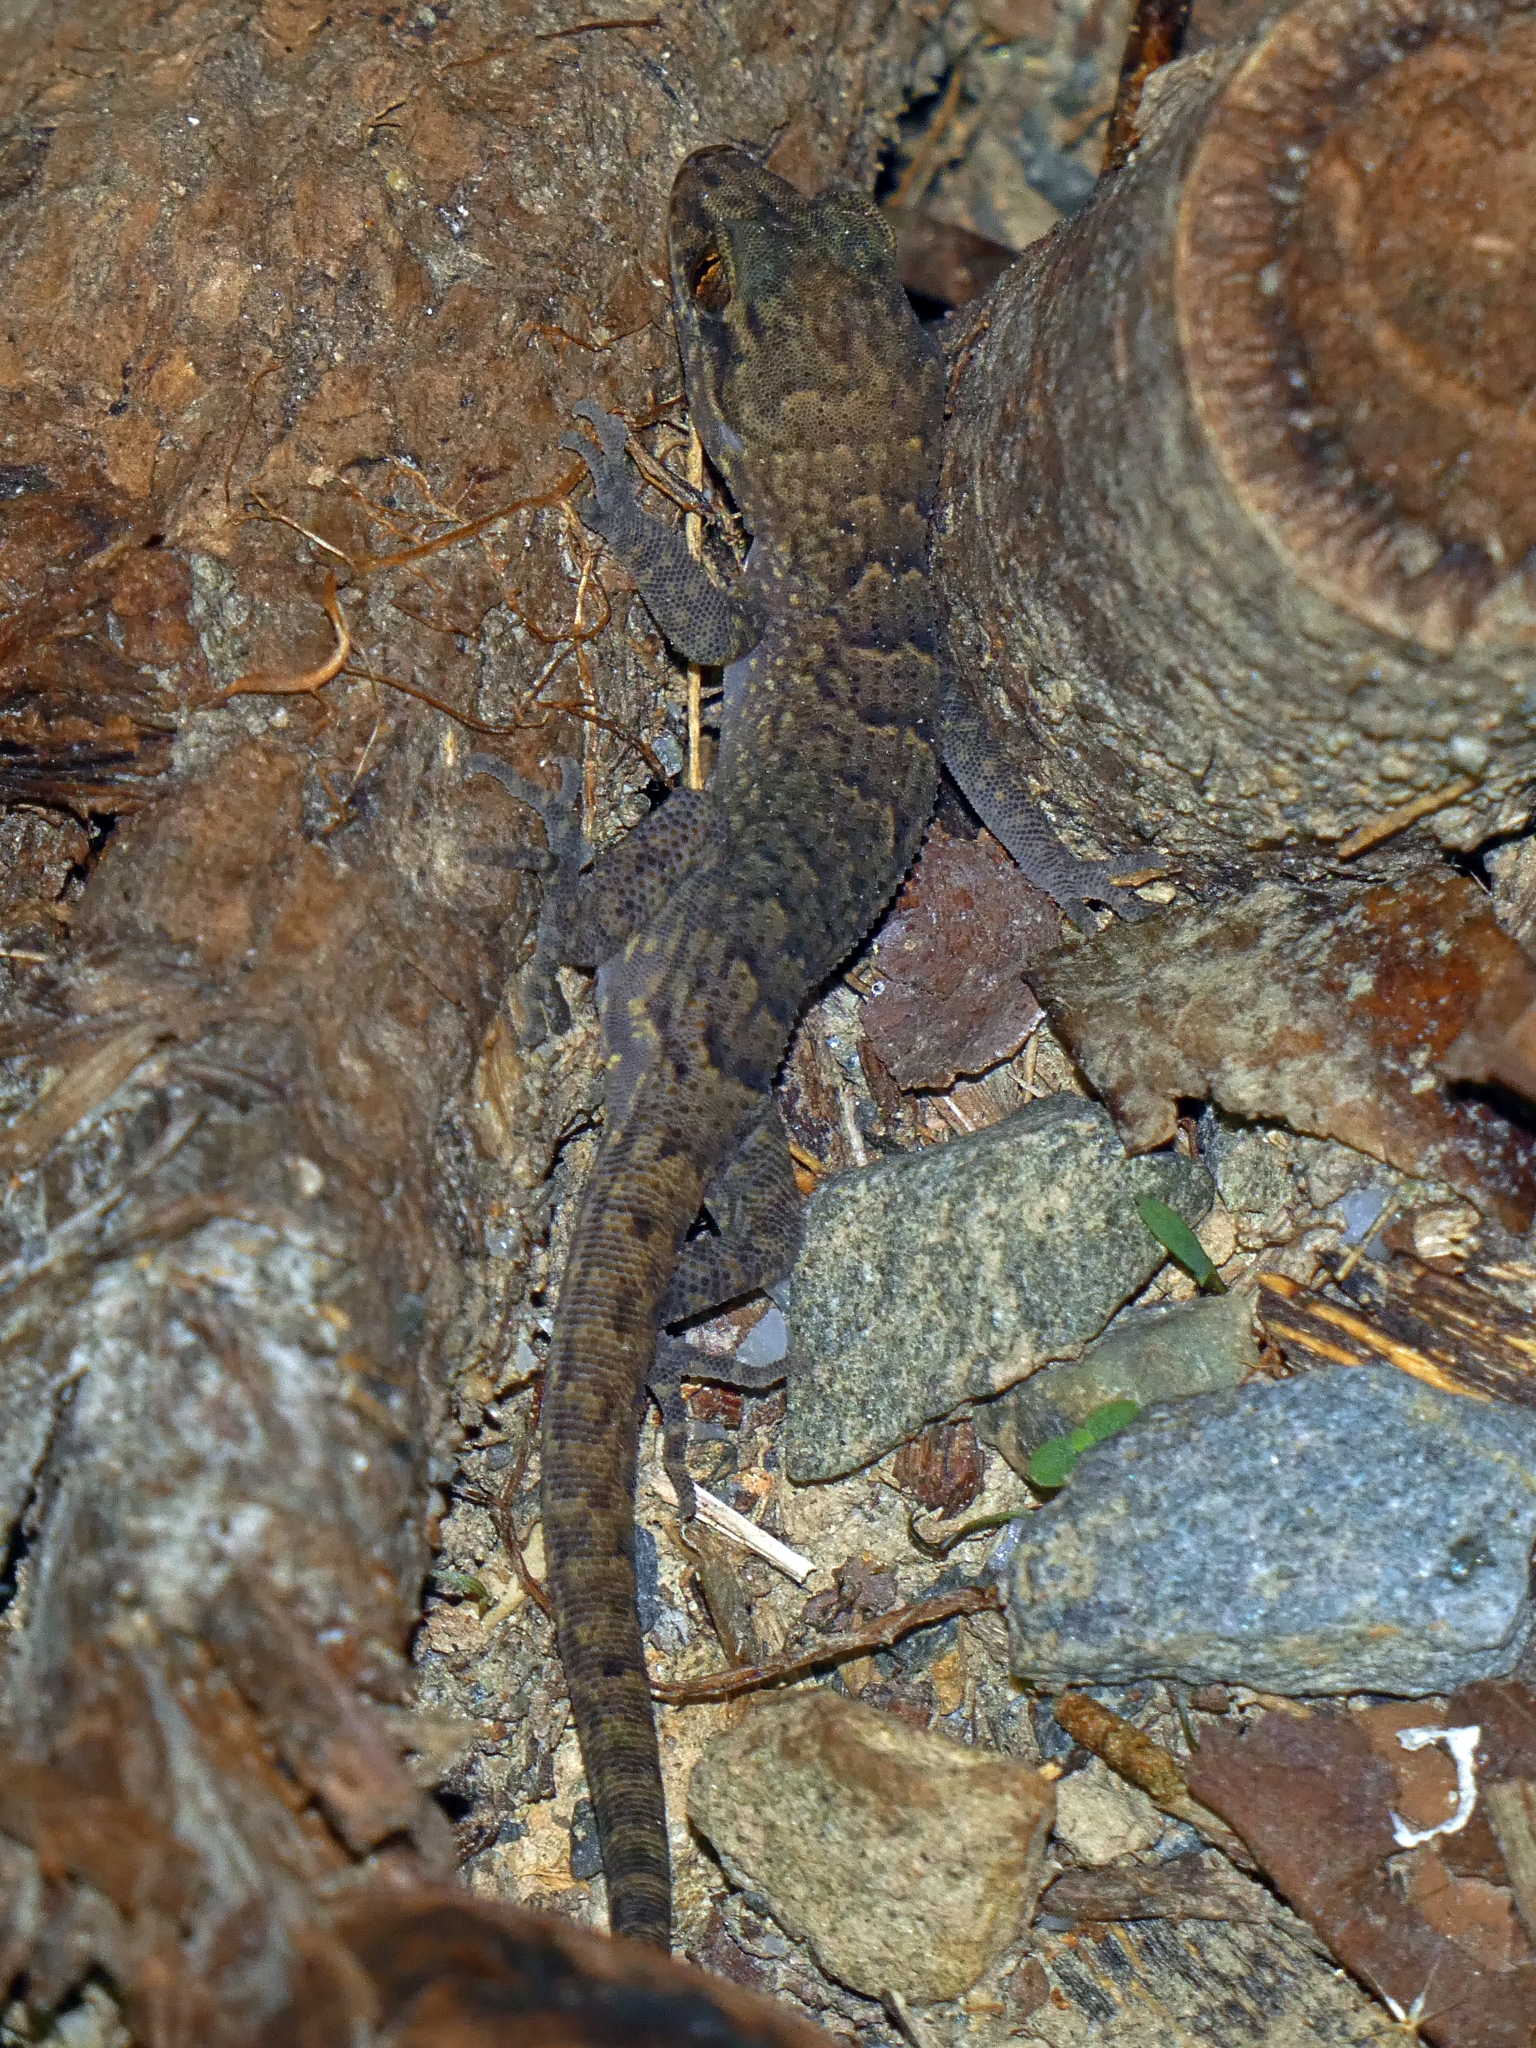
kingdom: Animalia
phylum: Chordata
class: Squamata
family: Gekkonidae
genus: Nactus
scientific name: Nactus cheverti
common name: Chevert's gecko
